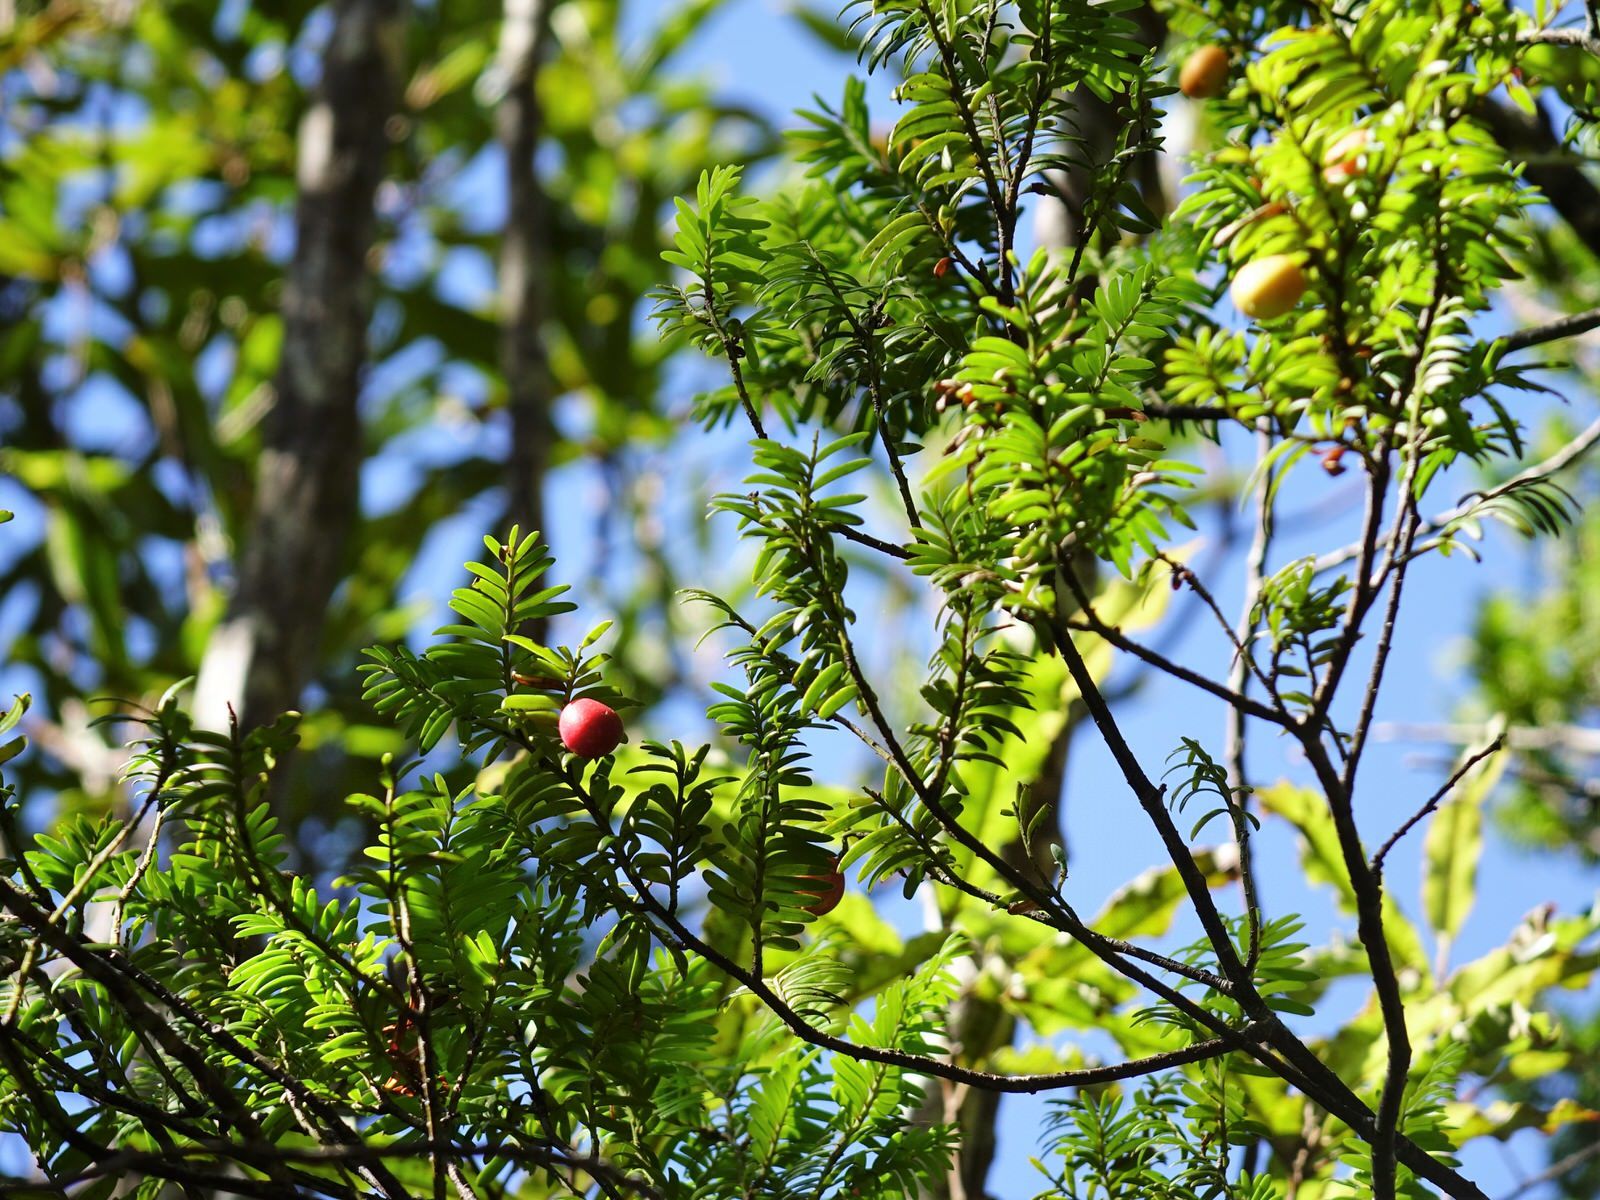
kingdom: Plantae
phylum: Tracheophyta
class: Pinopsida
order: Pinales
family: Podocarpaceae
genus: Prumnopitys
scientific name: Prumnopitys ferruginea
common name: Brown pine
